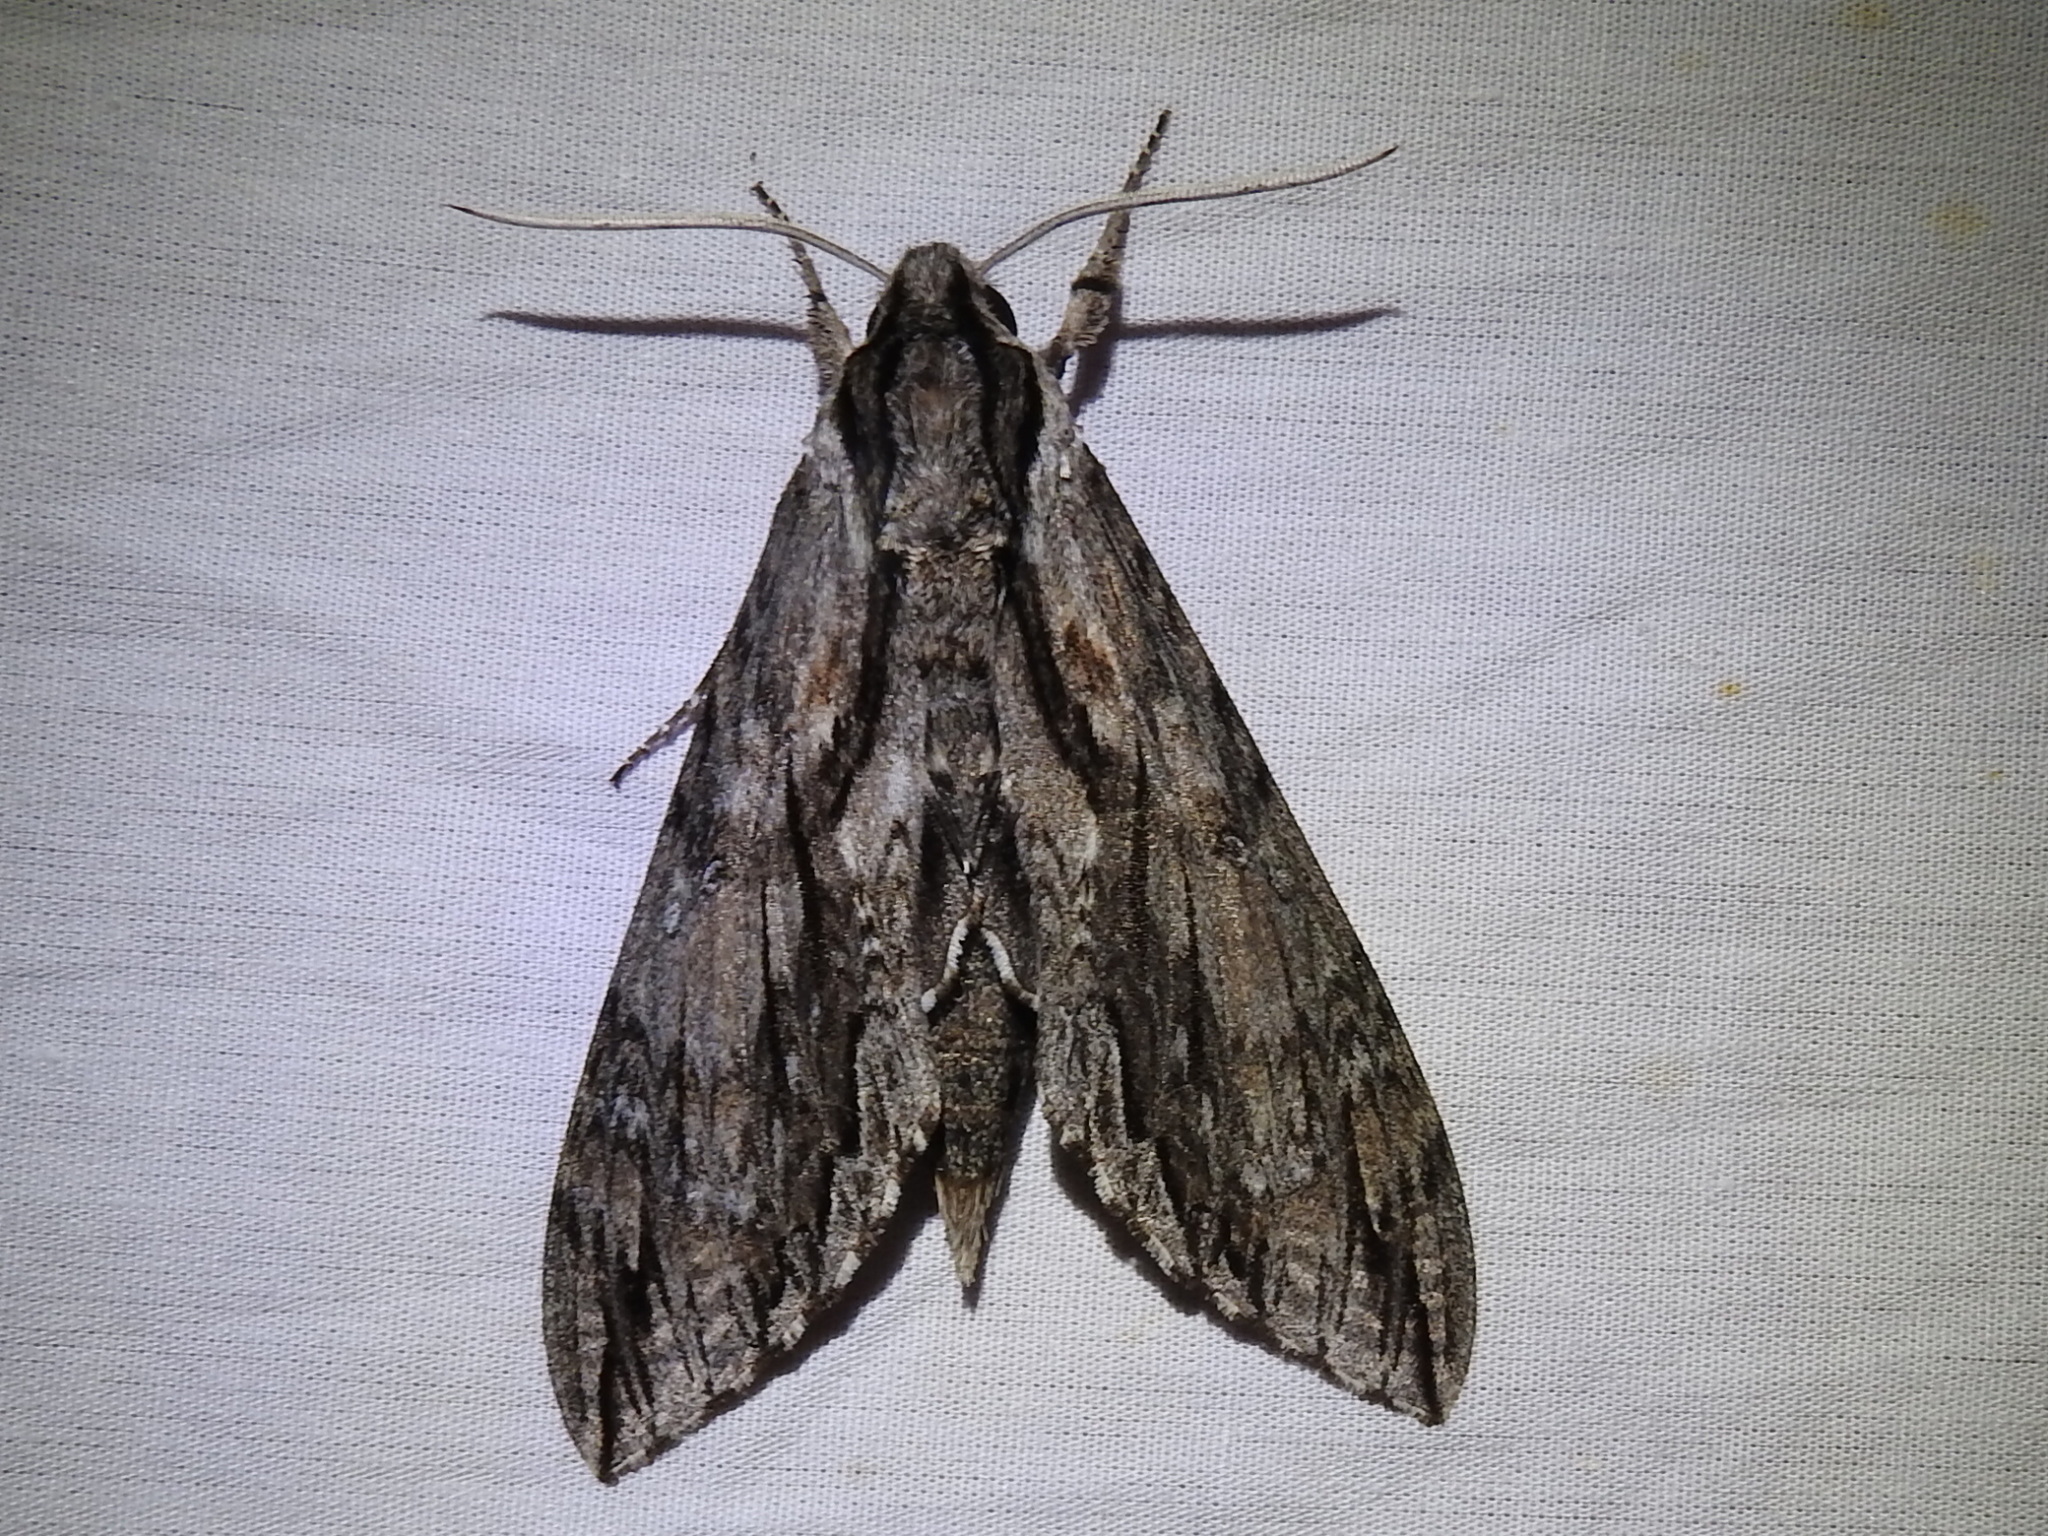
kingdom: Animalia
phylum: Arthropoda
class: Insecta
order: Lepidoptera
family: Sphingidae
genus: Lintneria
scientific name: Lintneria istar
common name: Istar sphinx
